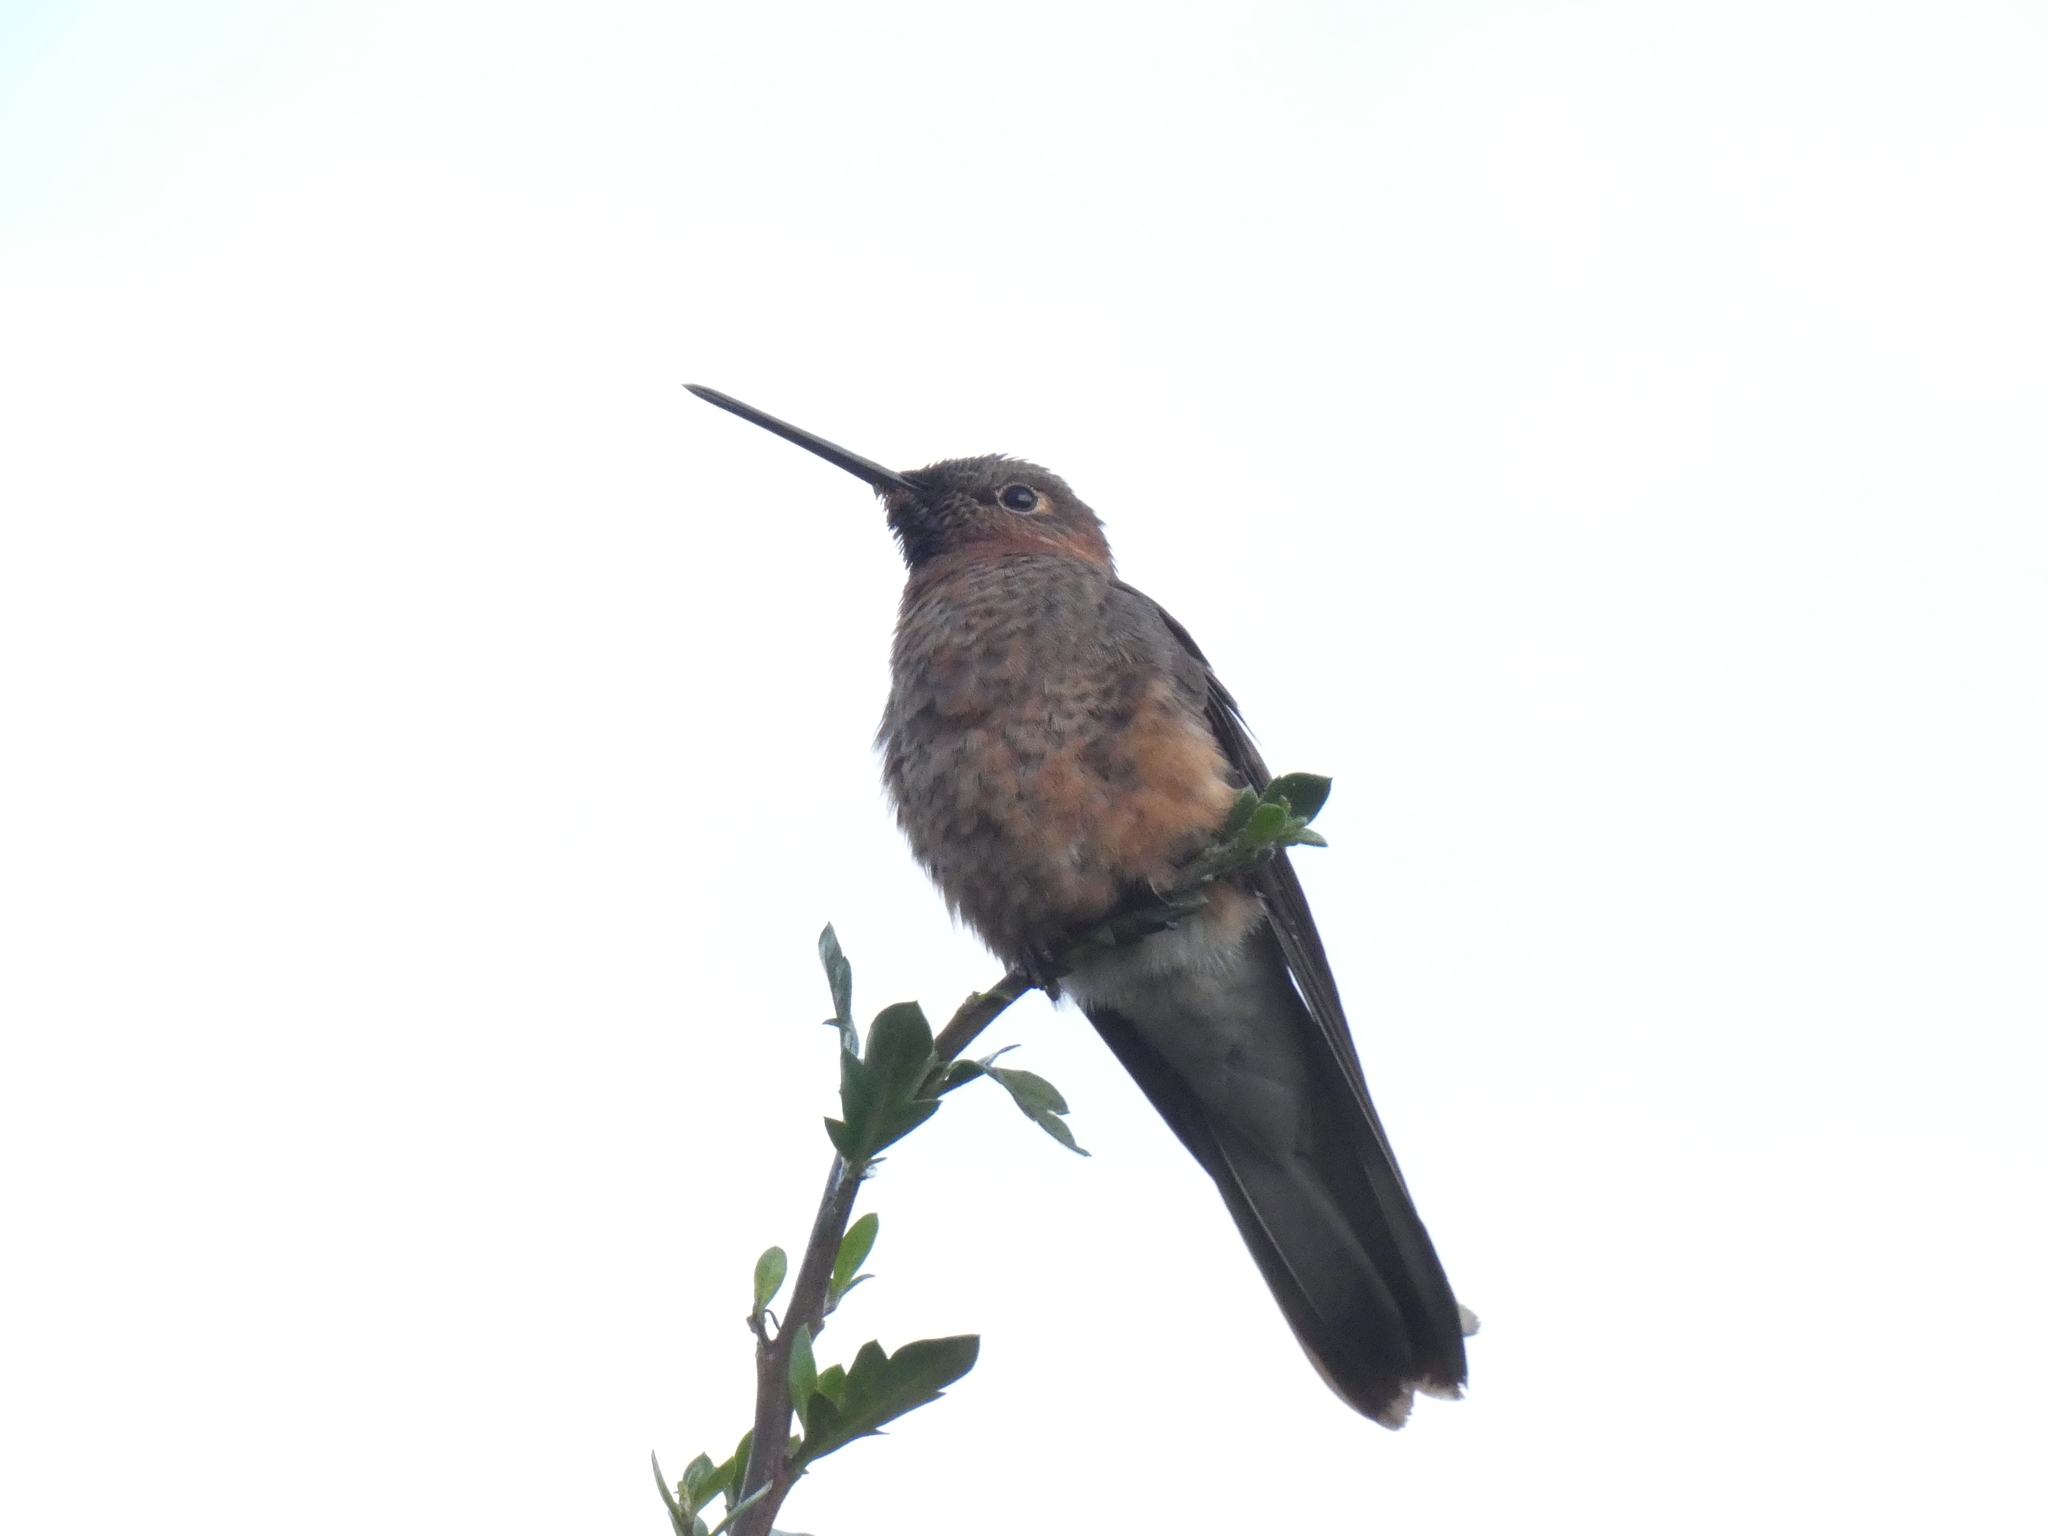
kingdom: Animalia
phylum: Chordata
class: Aves
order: Apodiformes
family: Trochilidae
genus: Patagona
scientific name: Patagona gigas
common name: Giant hummingbird
